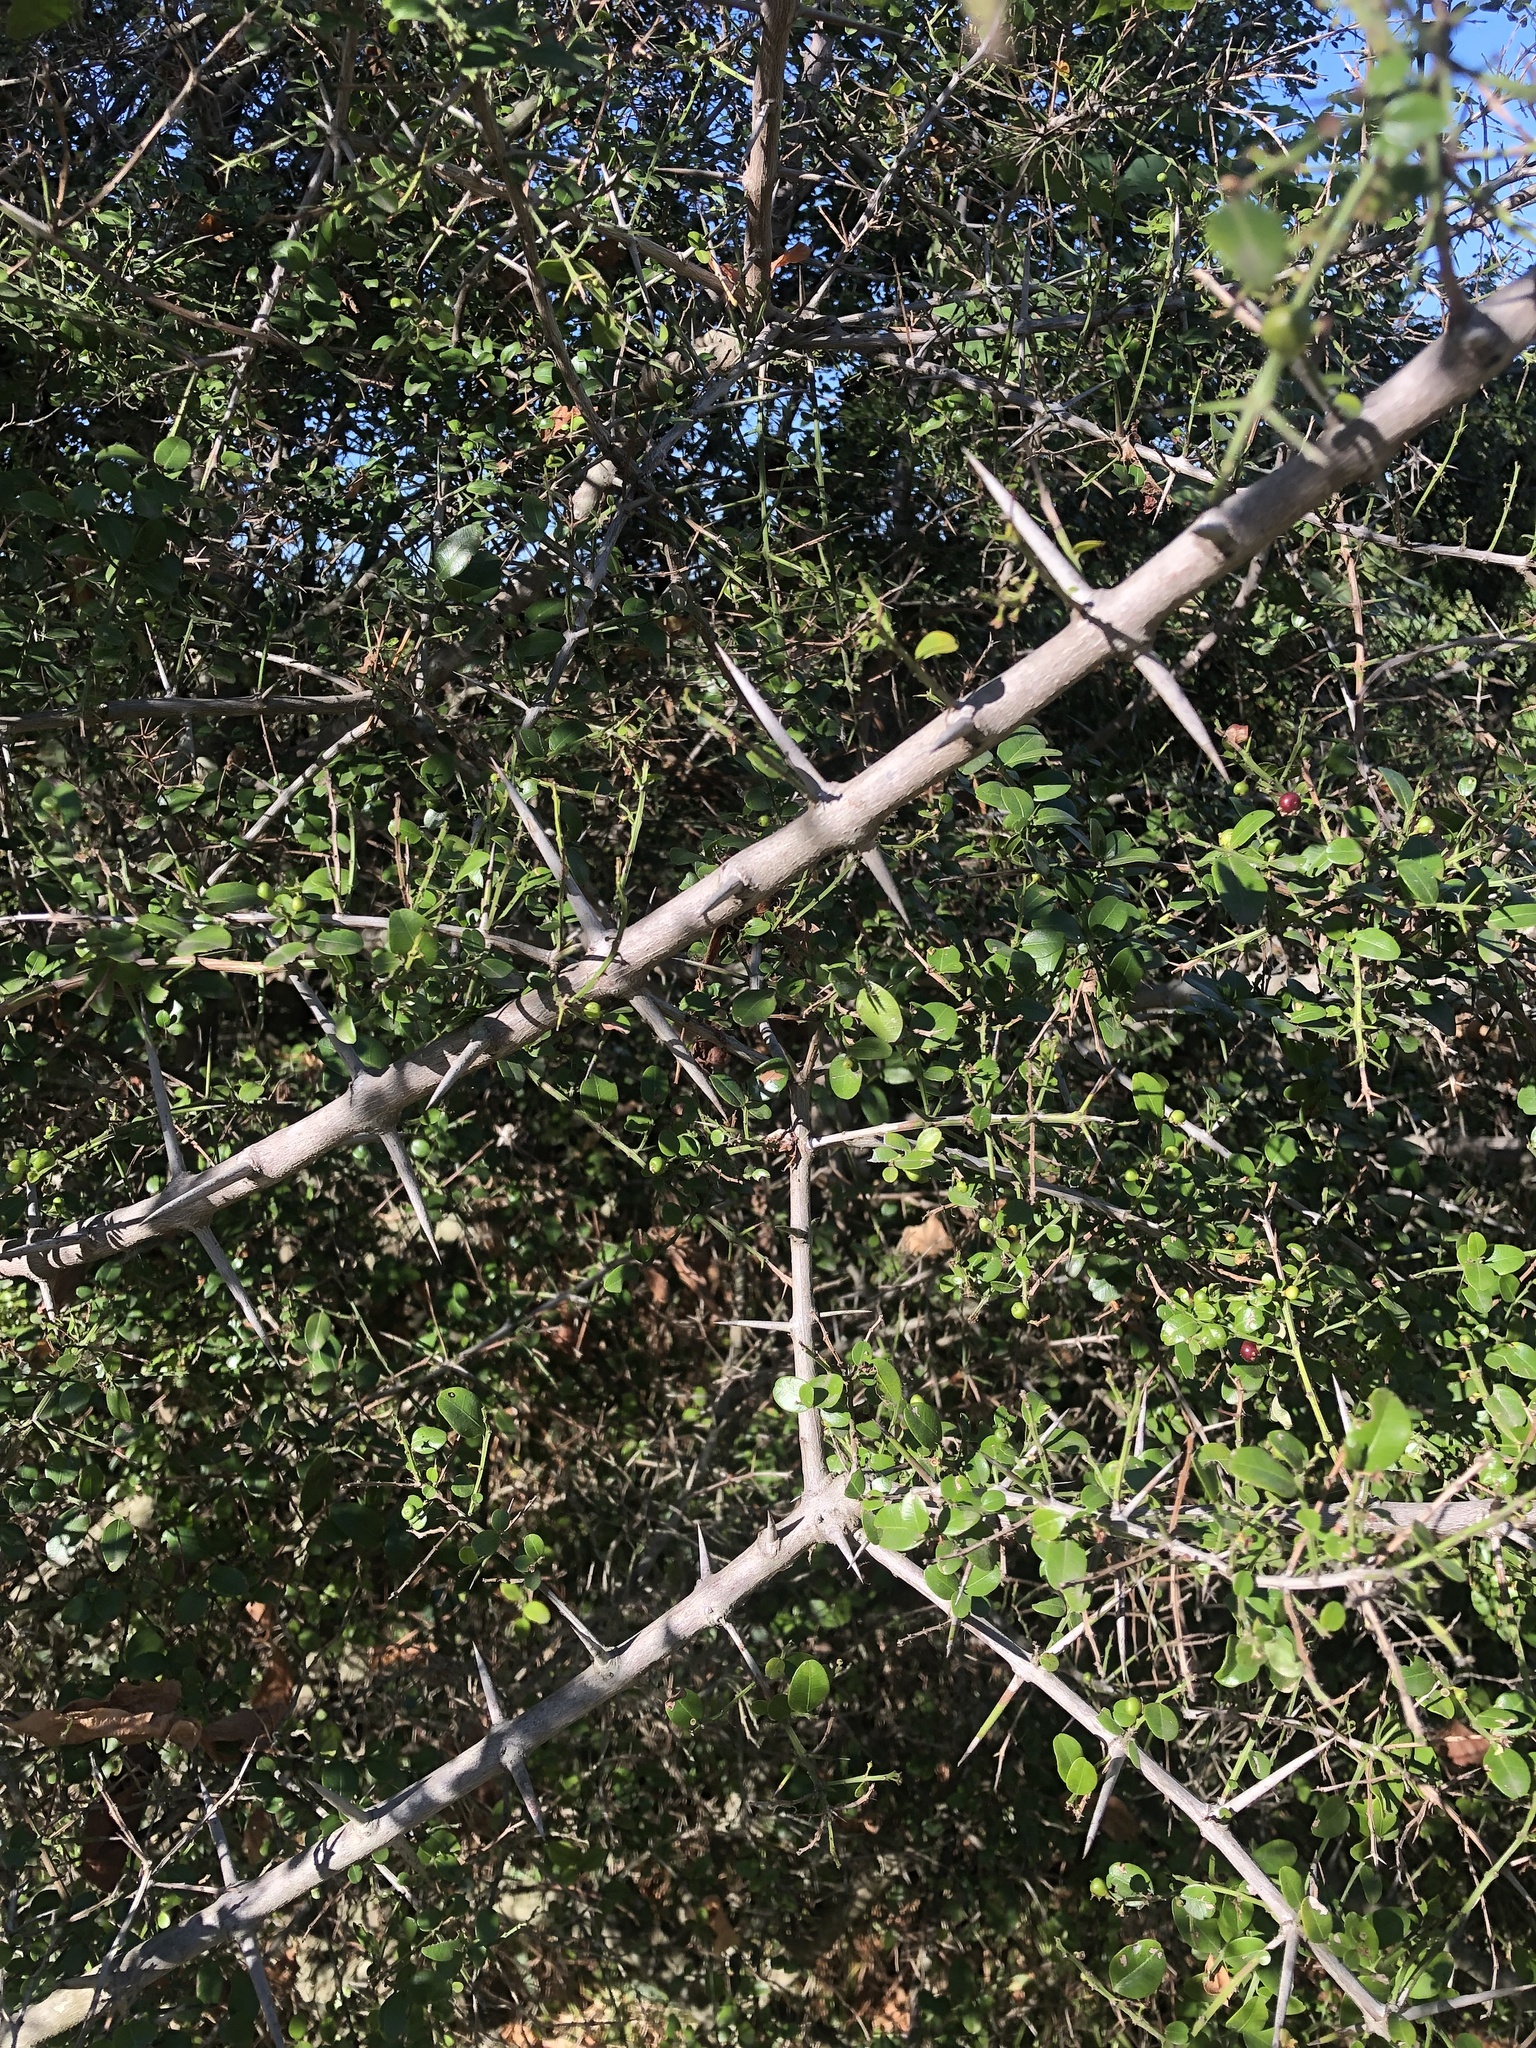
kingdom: Plantae
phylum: Tracheophyta
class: Magnoliopsida
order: Rosales
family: Rhamnaceae
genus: Scutia
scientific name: Scutia buxifolia
